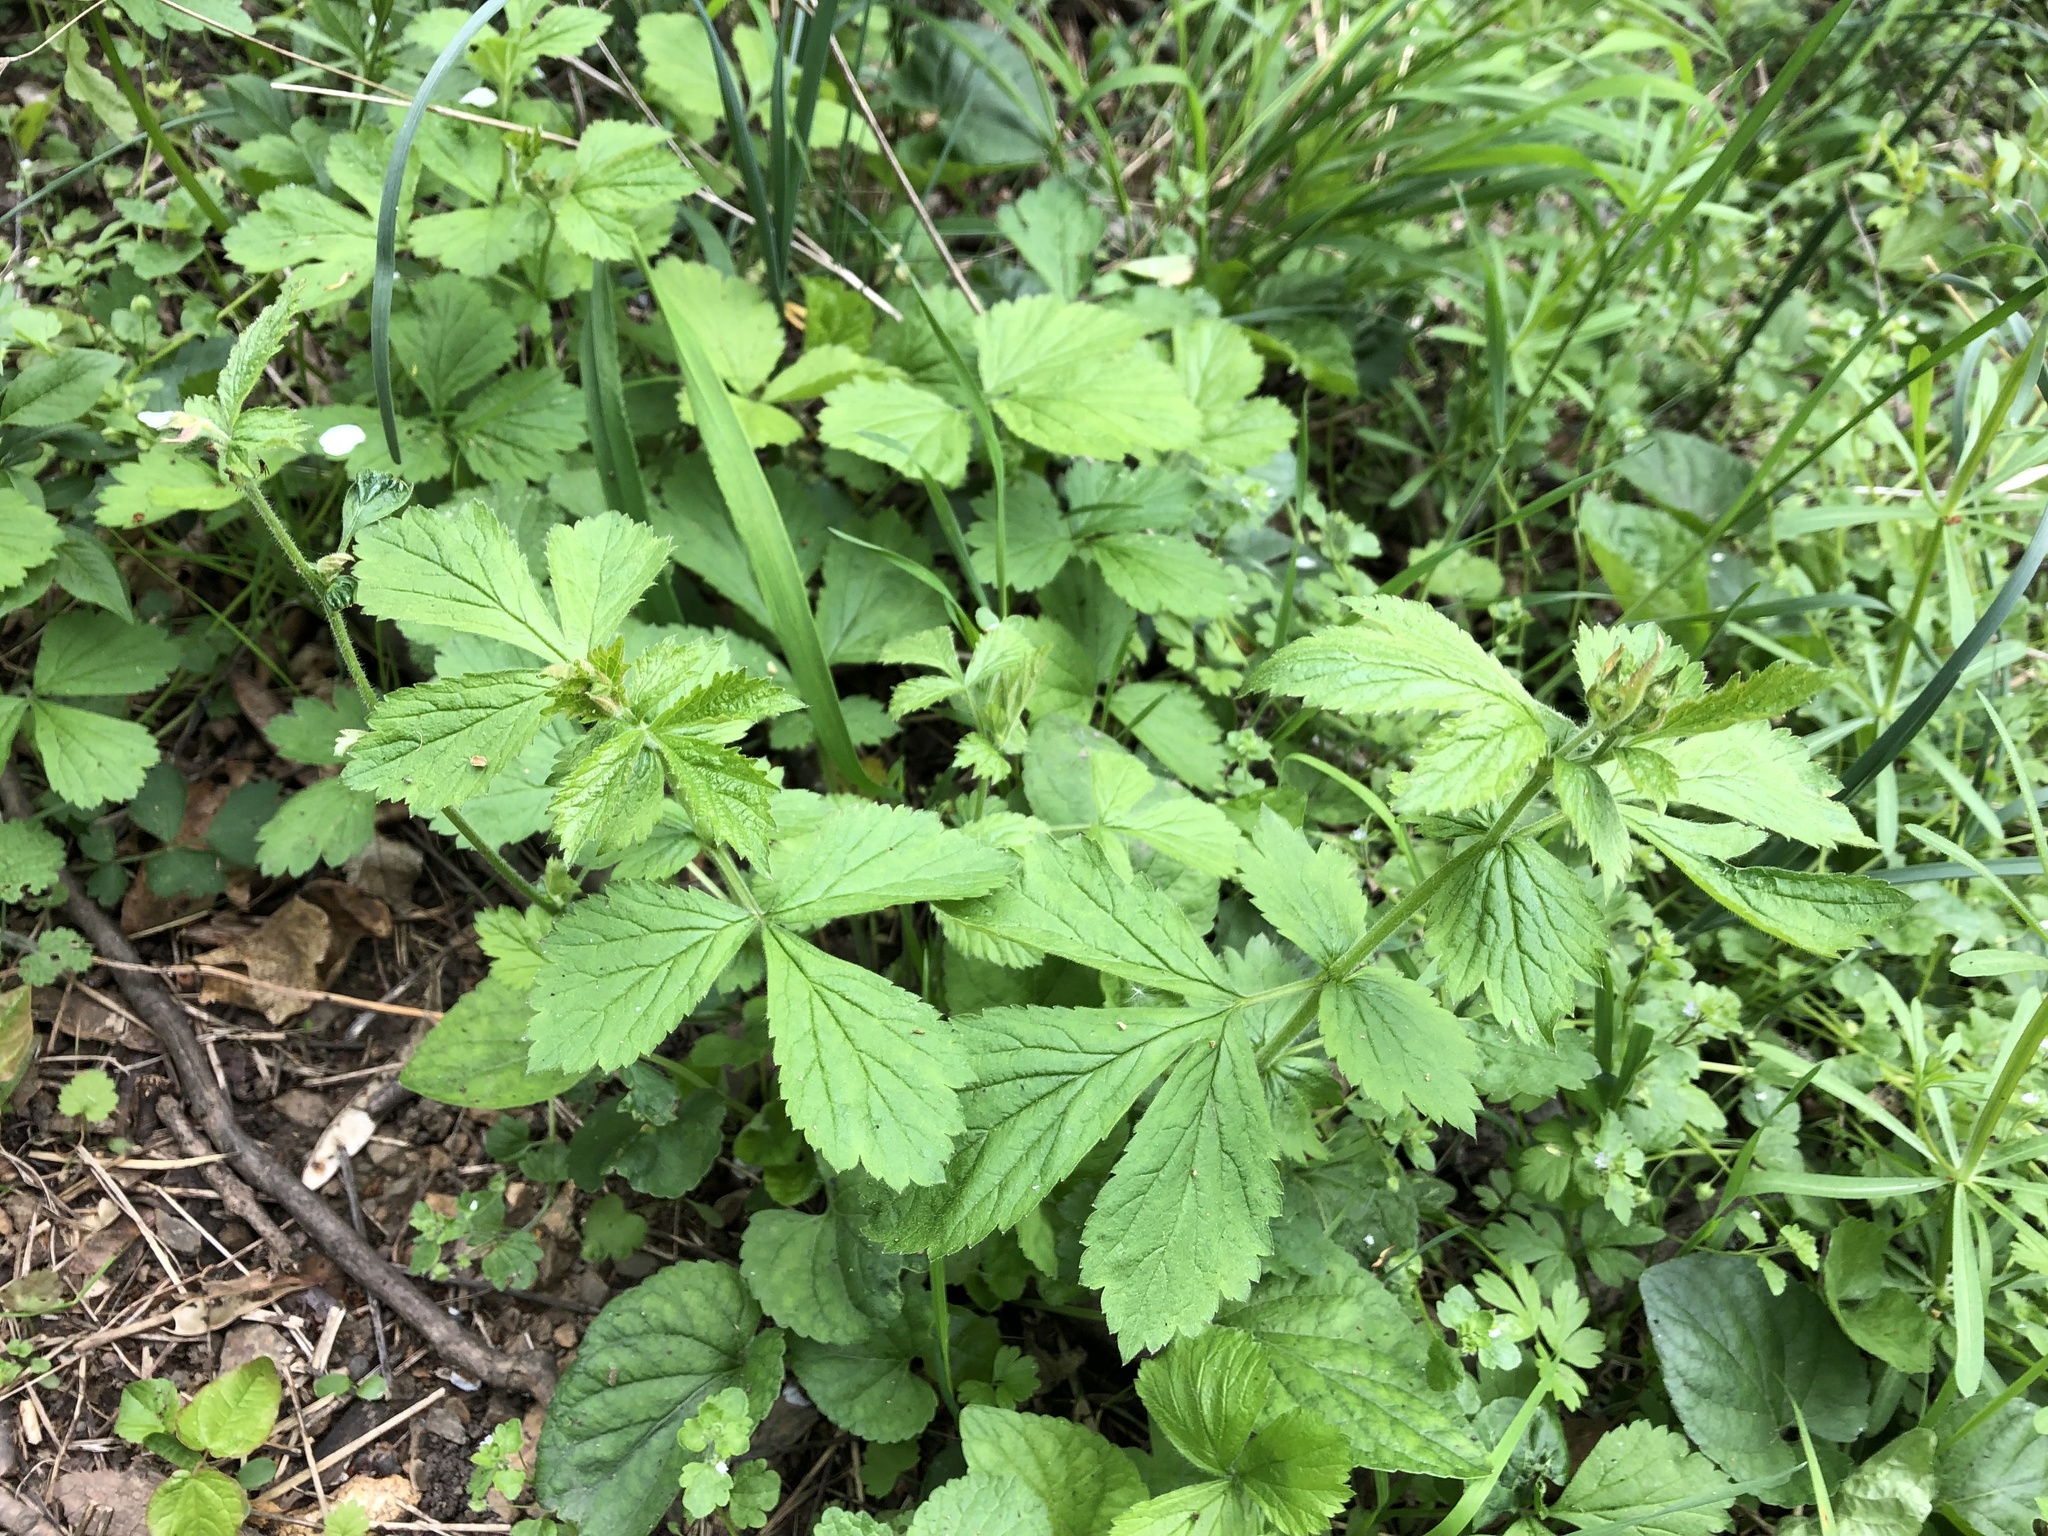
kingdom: Plantae
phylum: Tracheophyta
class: Magnoliopsida
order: Rosales
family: Rosaceae
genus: Geum
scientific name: Geum urbanum
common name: Wood avens
